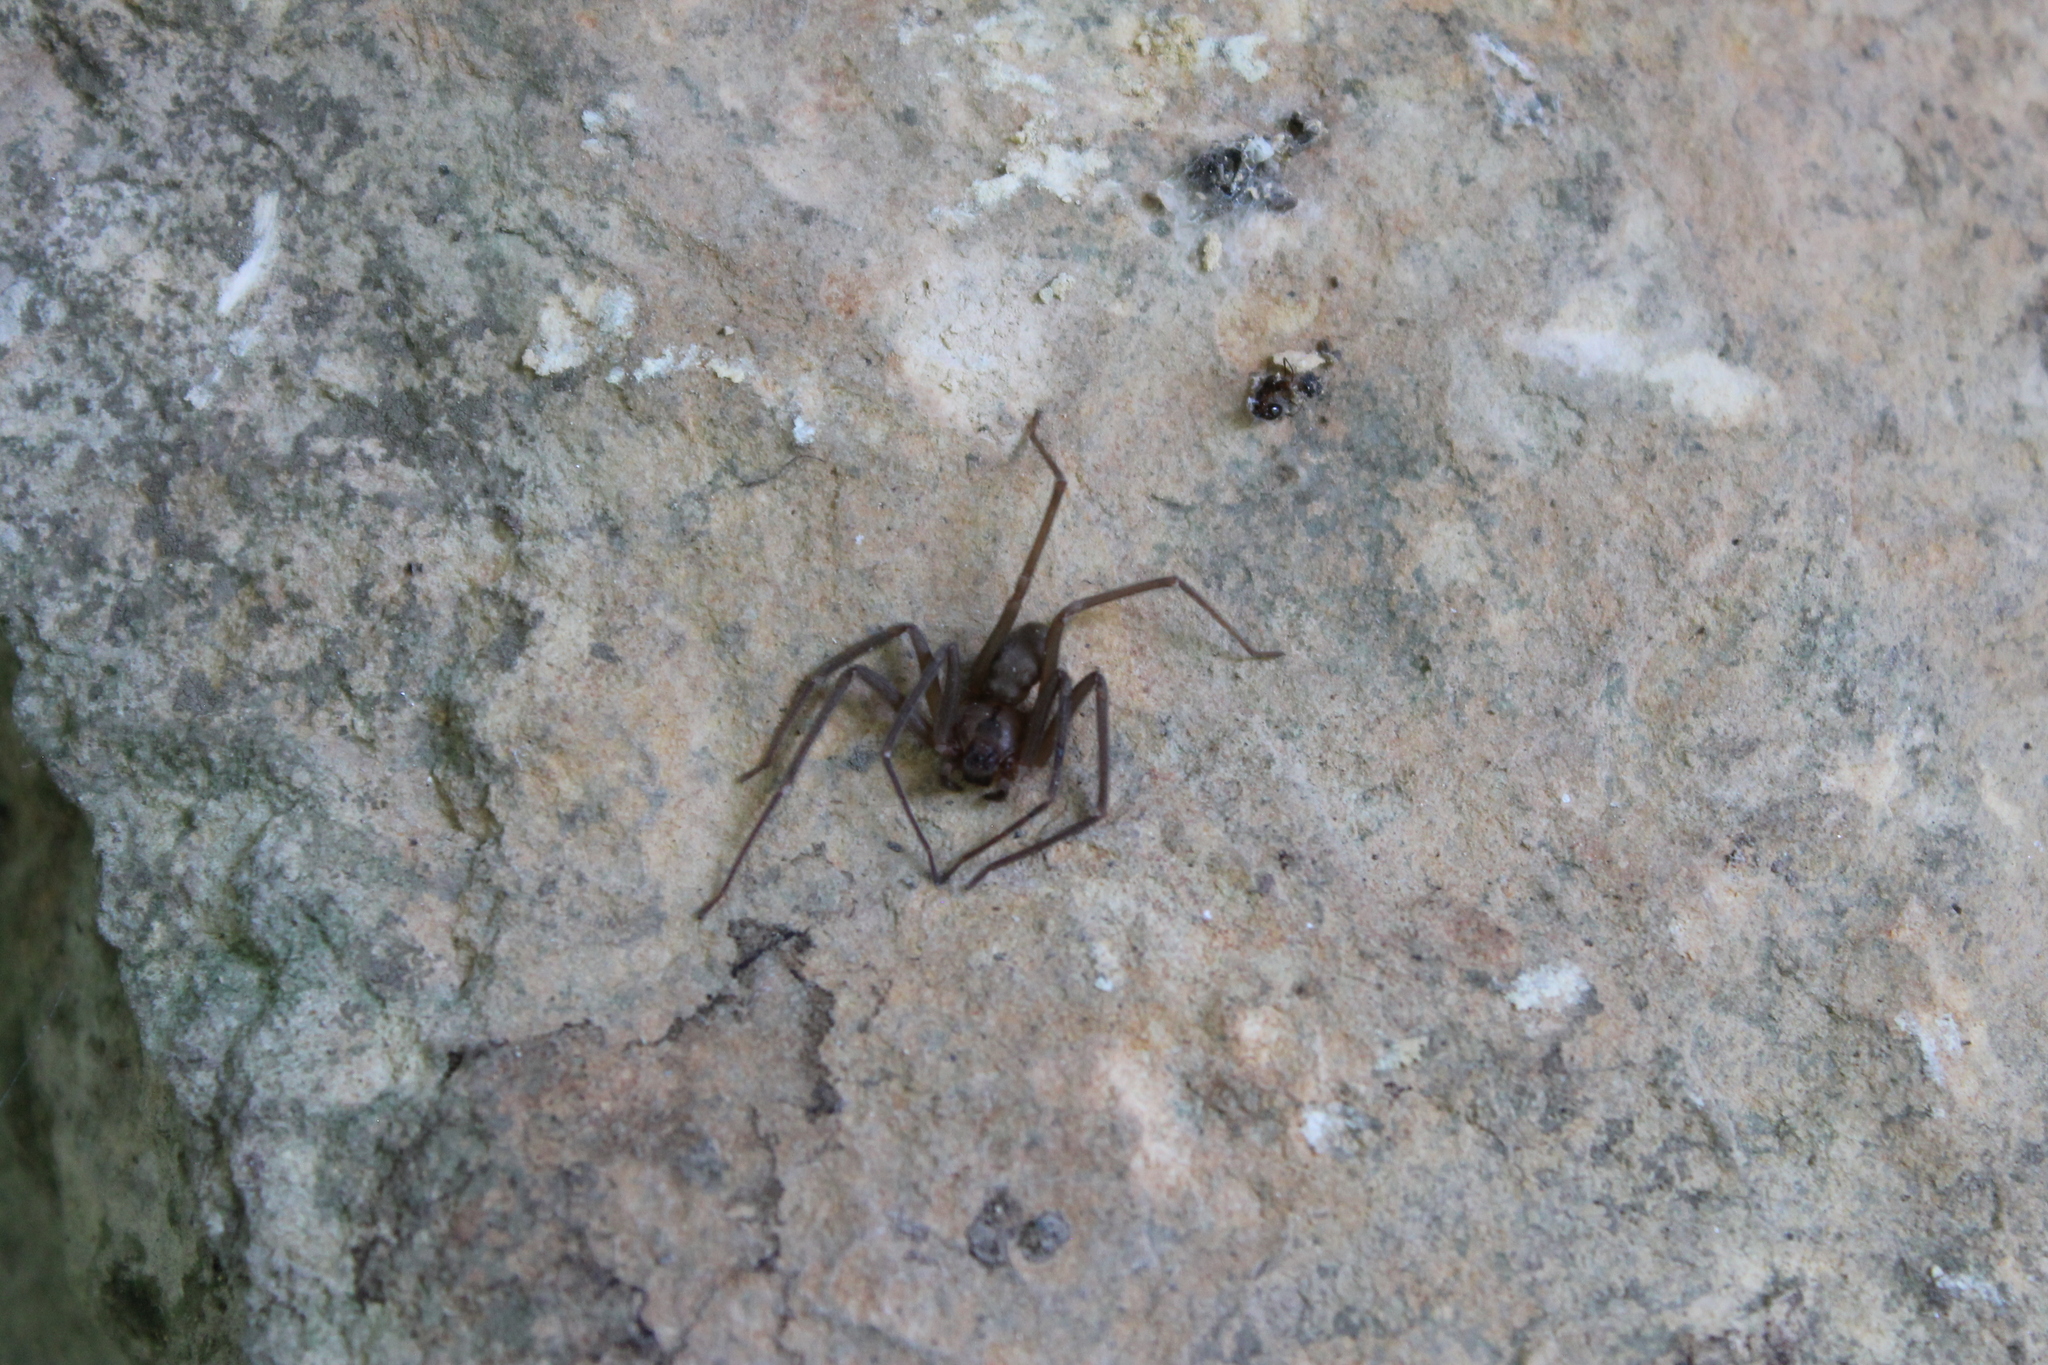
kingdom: Animalia
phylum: Arthropoda
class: Arachnida
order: Araneae
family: Sicariidae
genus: Loxosceles
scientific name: Loxosceles reclusa
